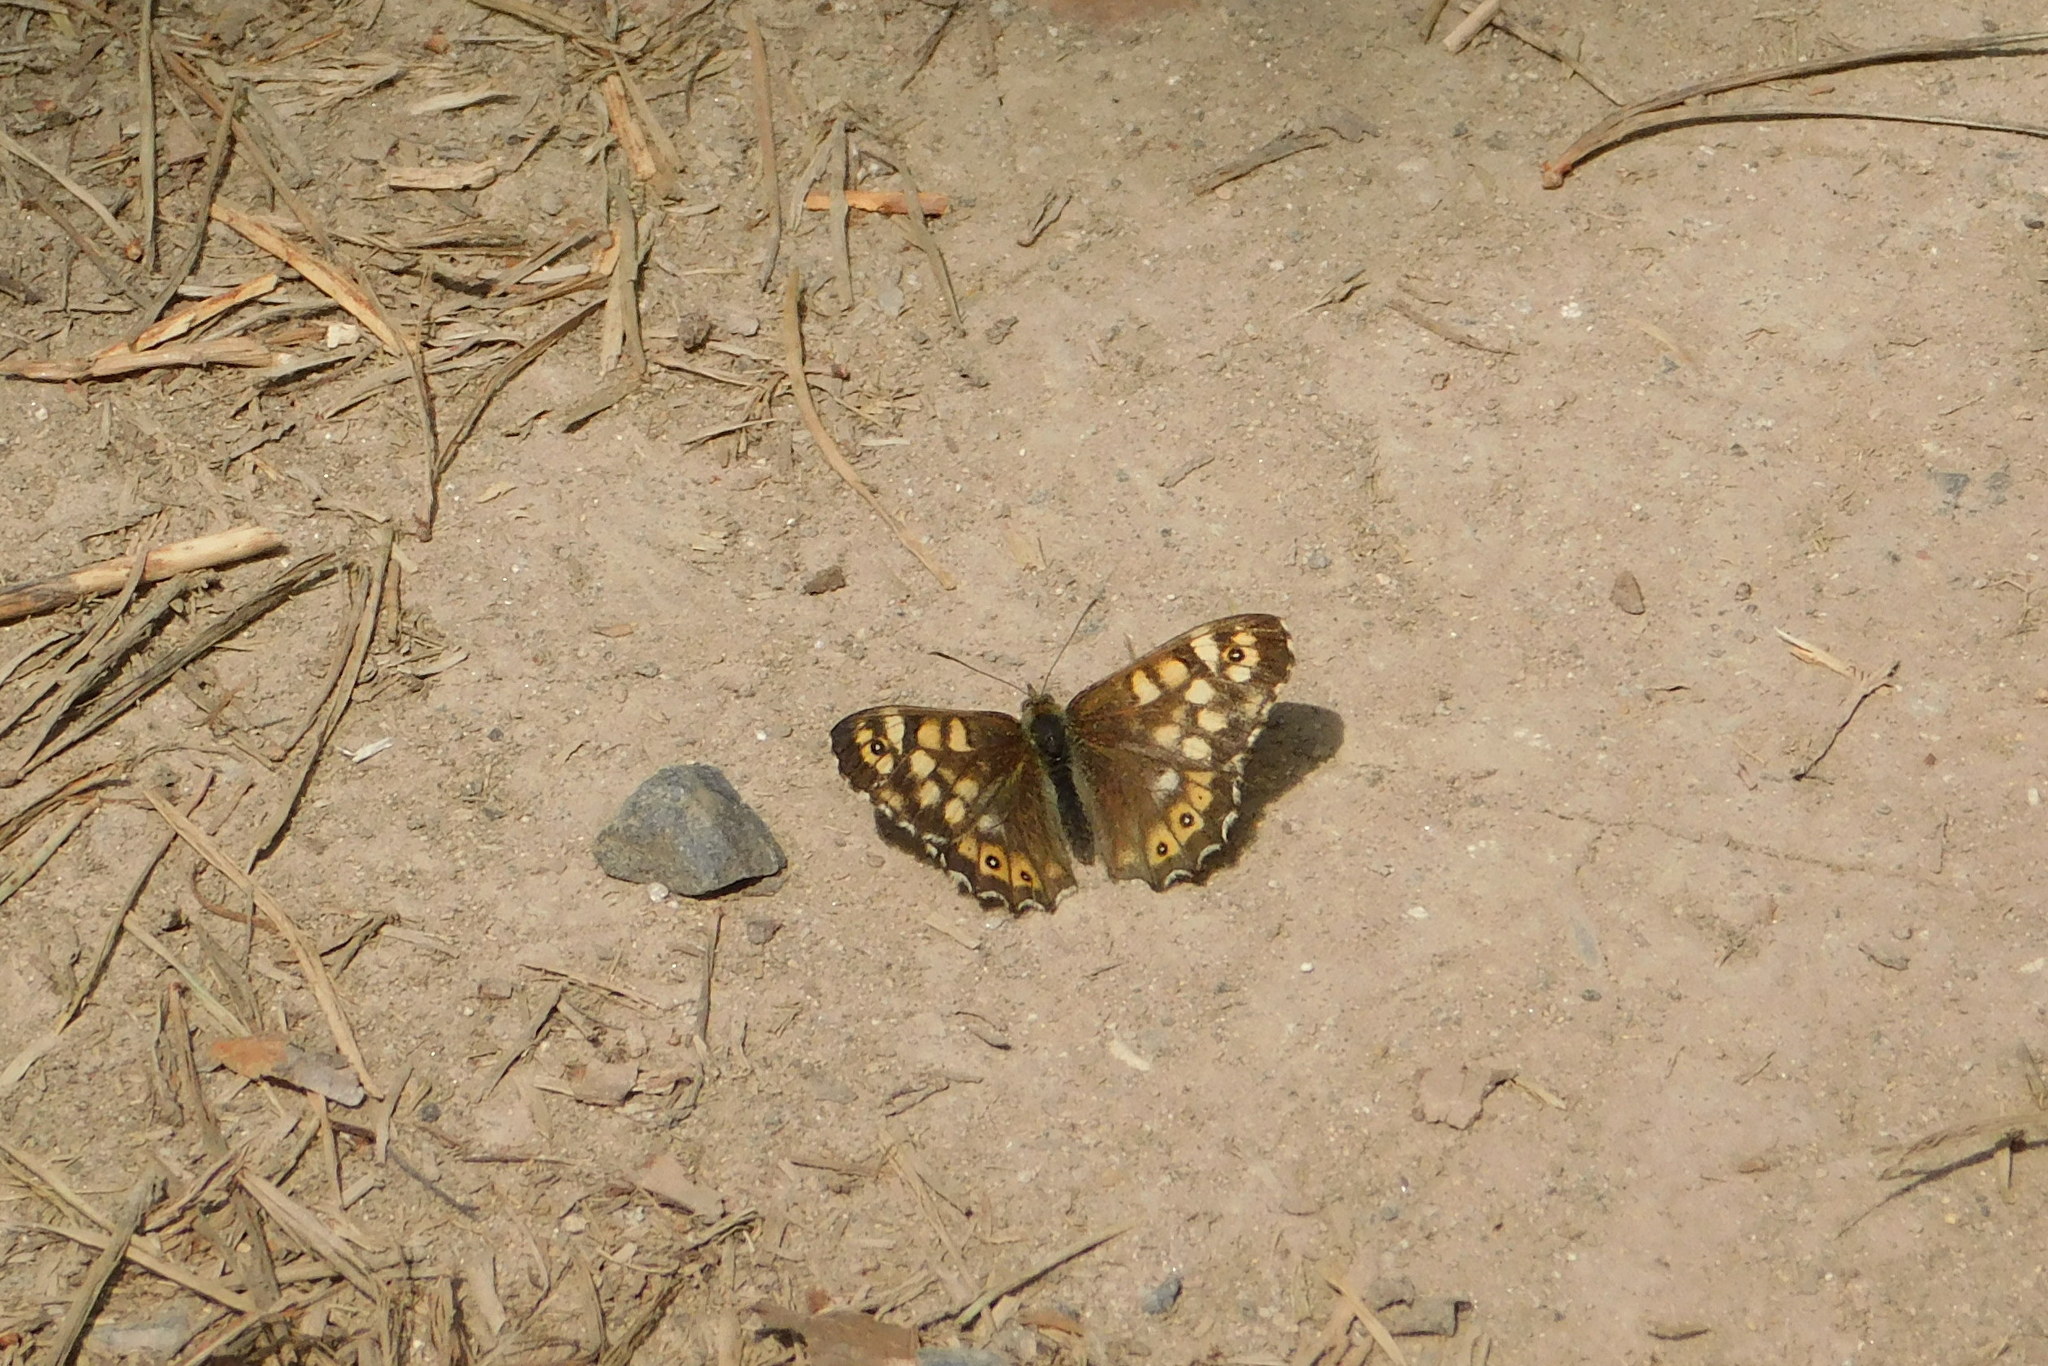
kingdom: Animalia
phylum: Arthropoda
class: Insecta
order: Lepidoptera
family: Nymphalidae
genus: Pararge
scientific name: Pararge aegeria
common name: Speckled wood
